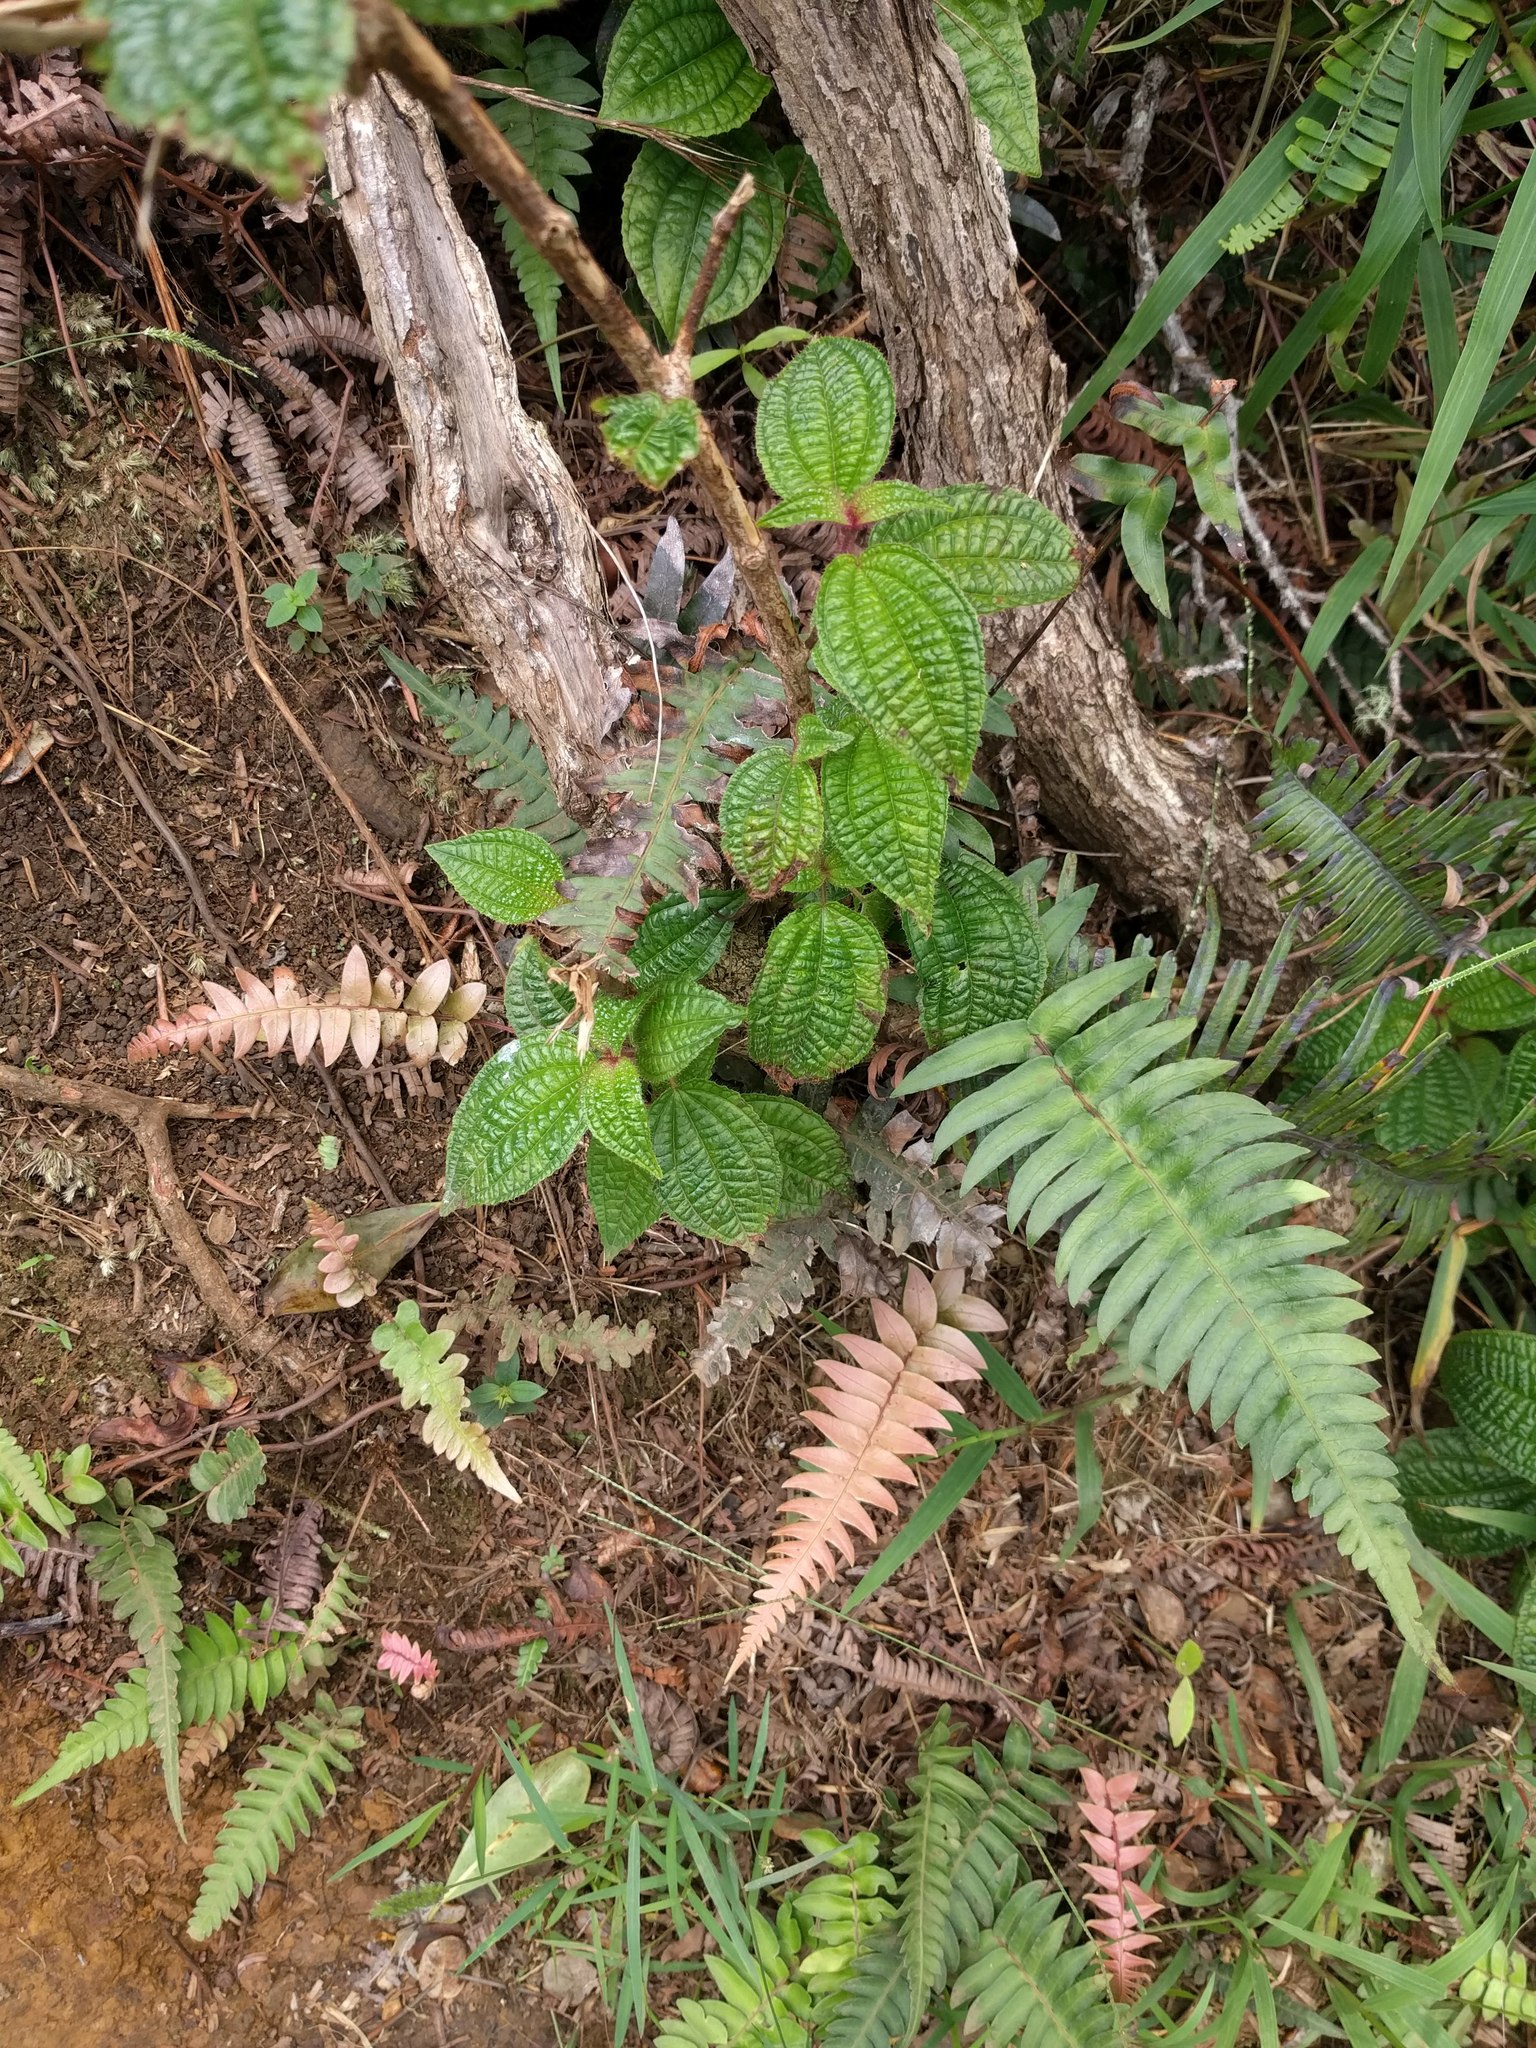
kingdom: Plantae
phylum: Tracheophyta
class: Polypodiopsida
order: Polypodiales
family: Blechnaceae
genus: Blechnum
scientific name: Blechnum appendiculatum
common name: Palm fern
